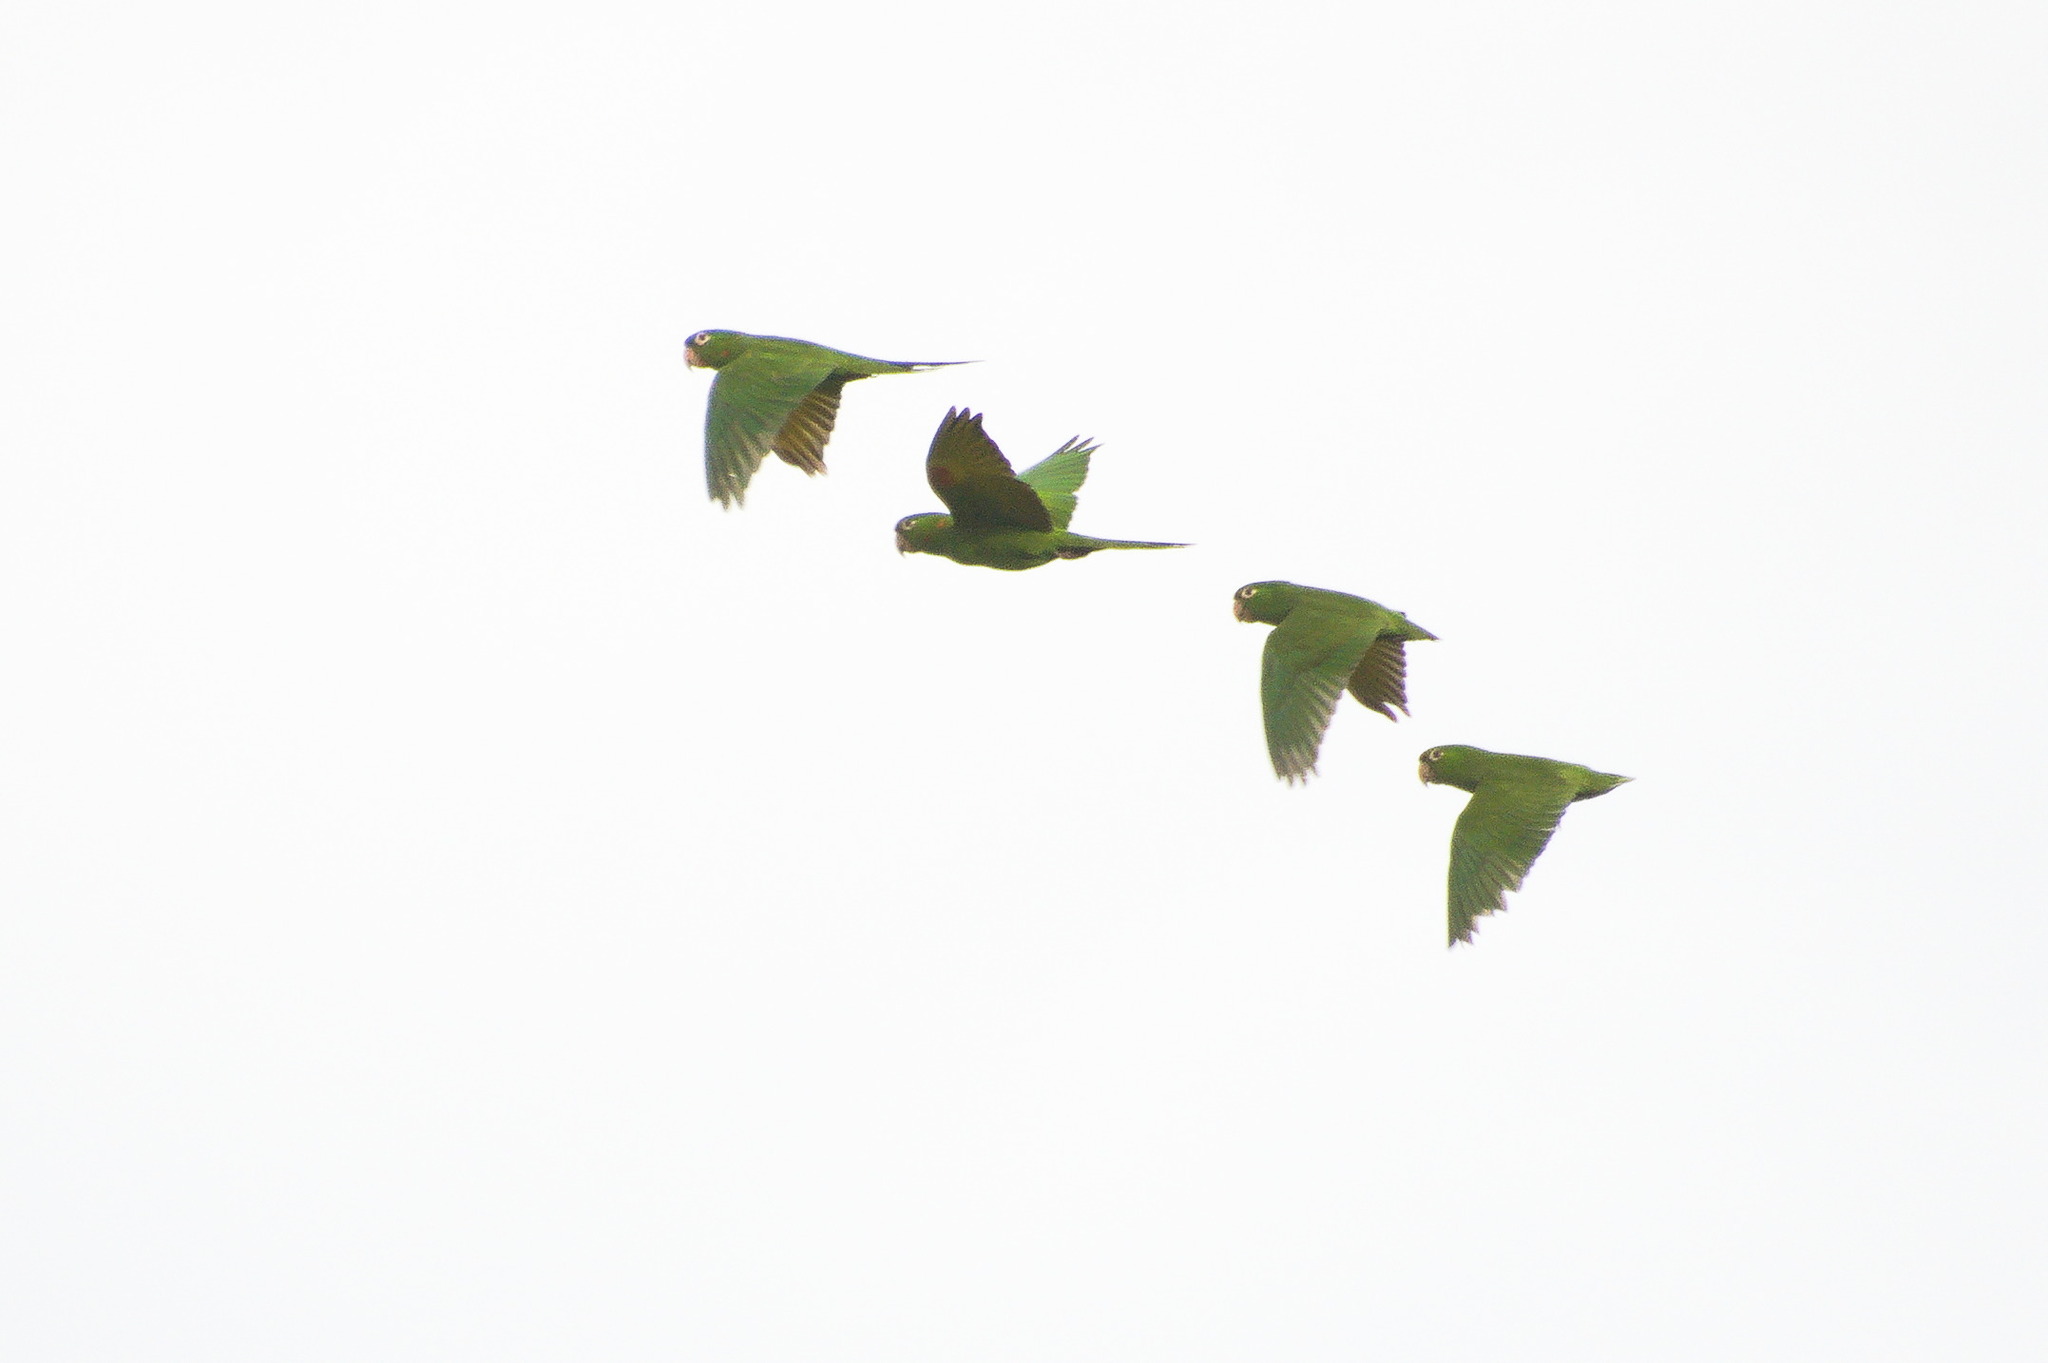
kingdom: Animalia
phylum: Chordata
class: Aves
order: Psittaciformes
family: Psittacidae
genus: Aratinga
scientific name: Aratinga leucophthalma
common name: White-eyed parakeet
